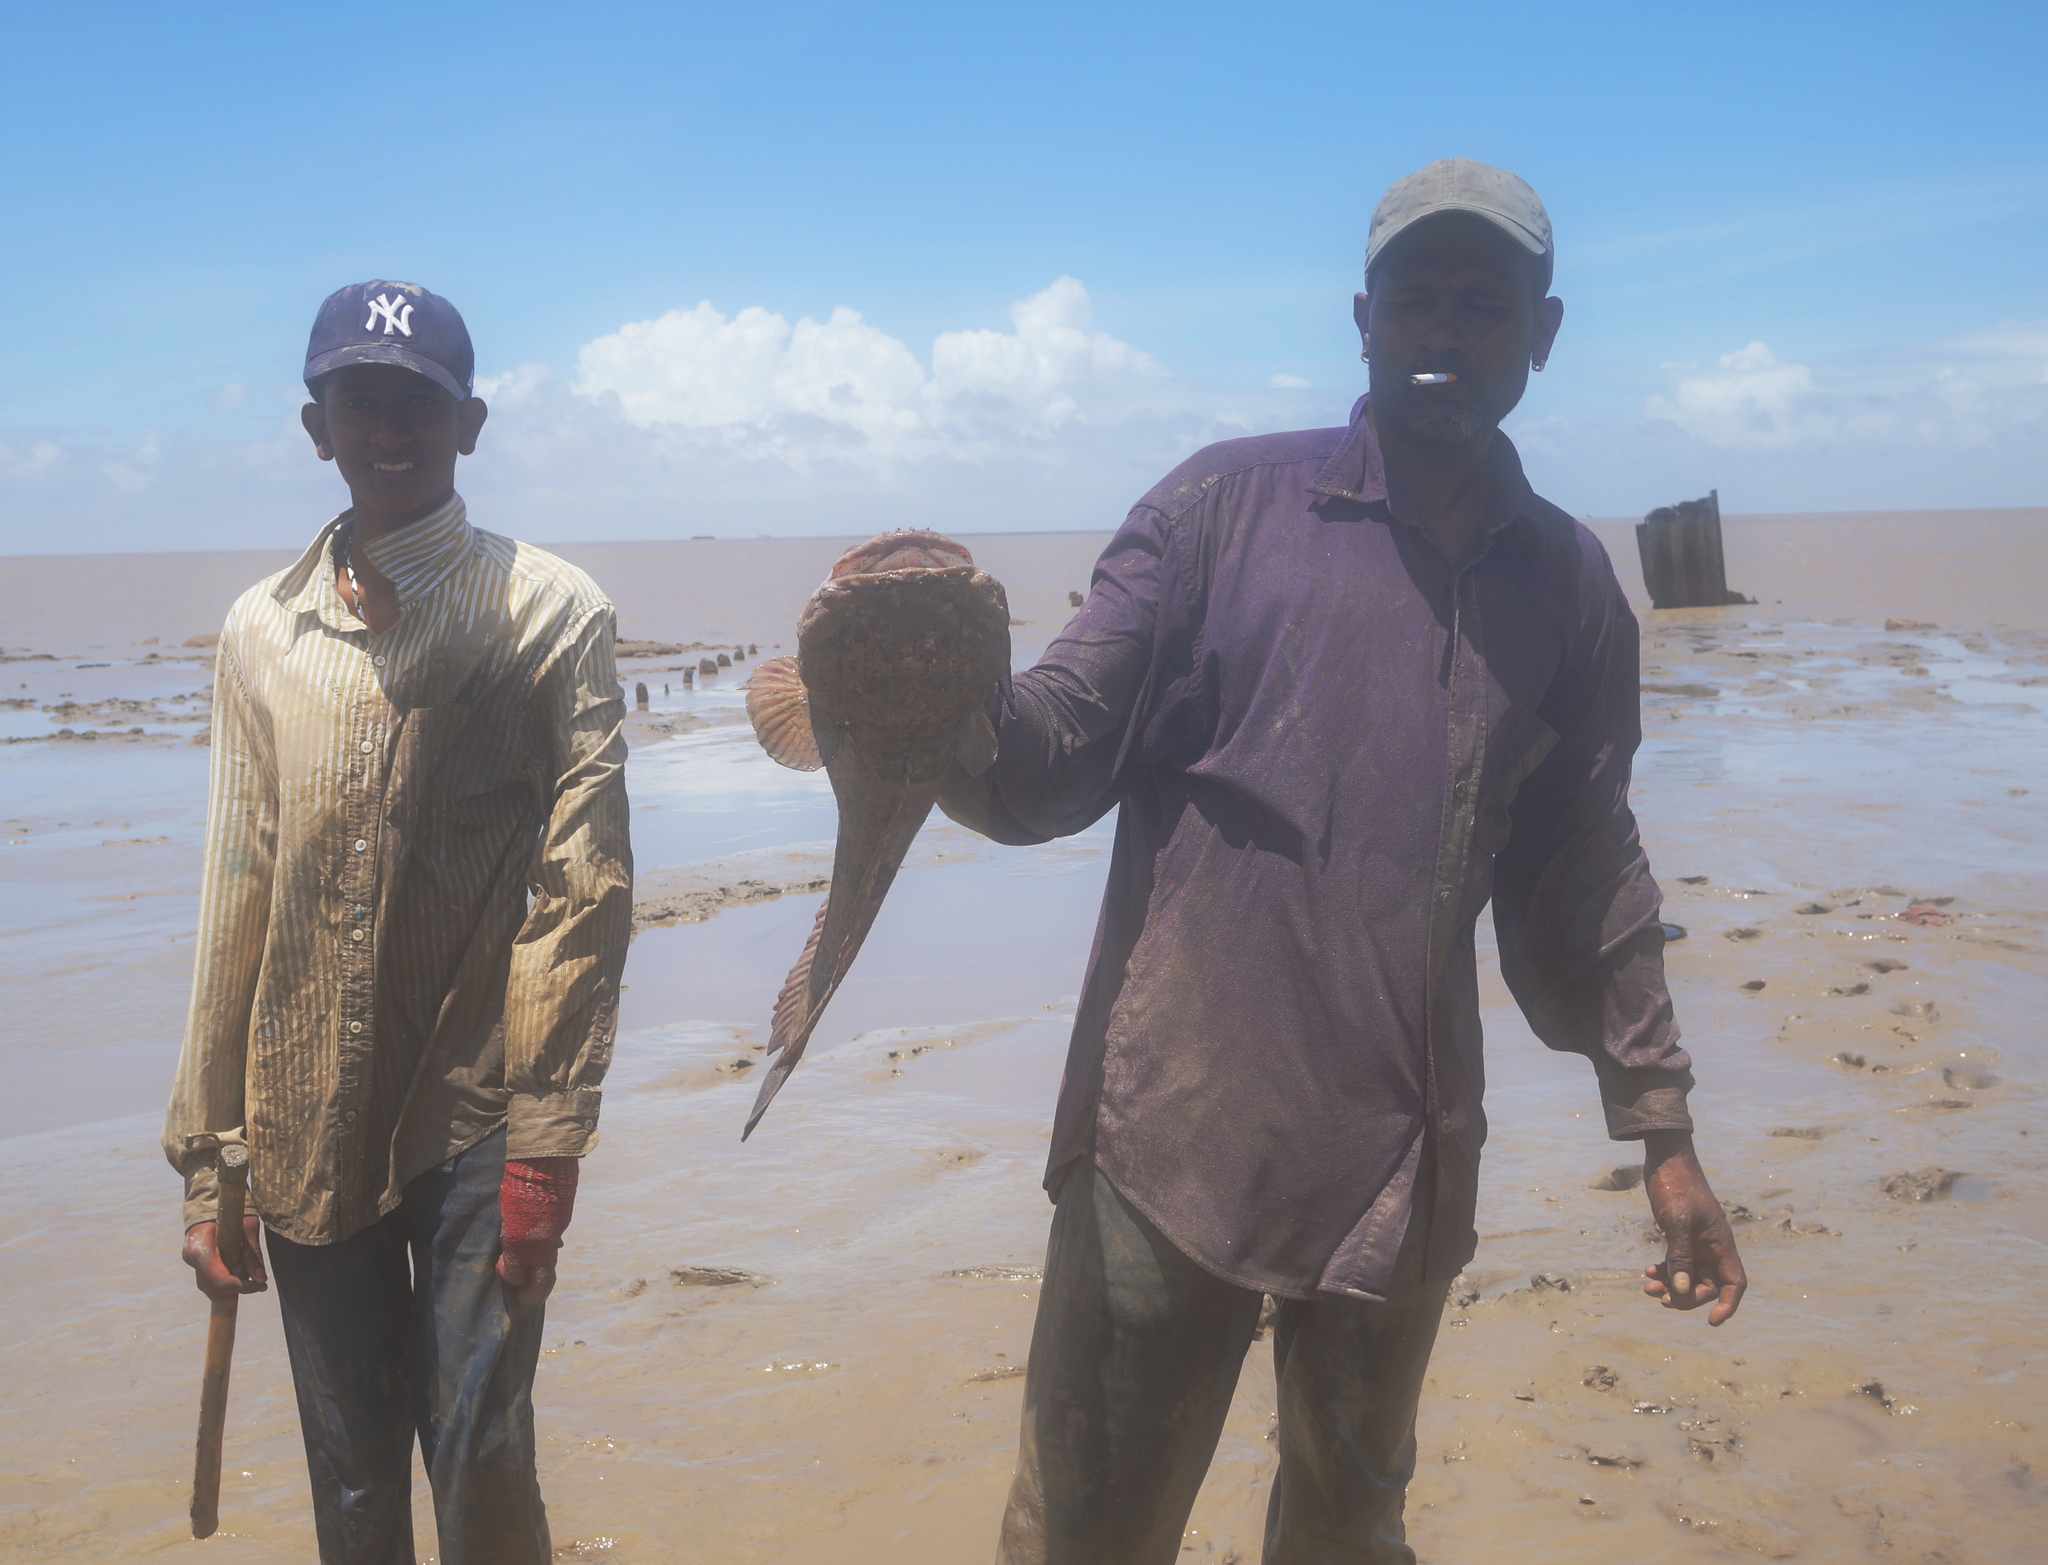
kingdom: Animalia
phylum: Chordata
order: Batrachoidiformes
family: Batrachoididae
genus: Batrachoides
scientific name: Batrachoides surinamensis
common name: Pacuma toadfish
